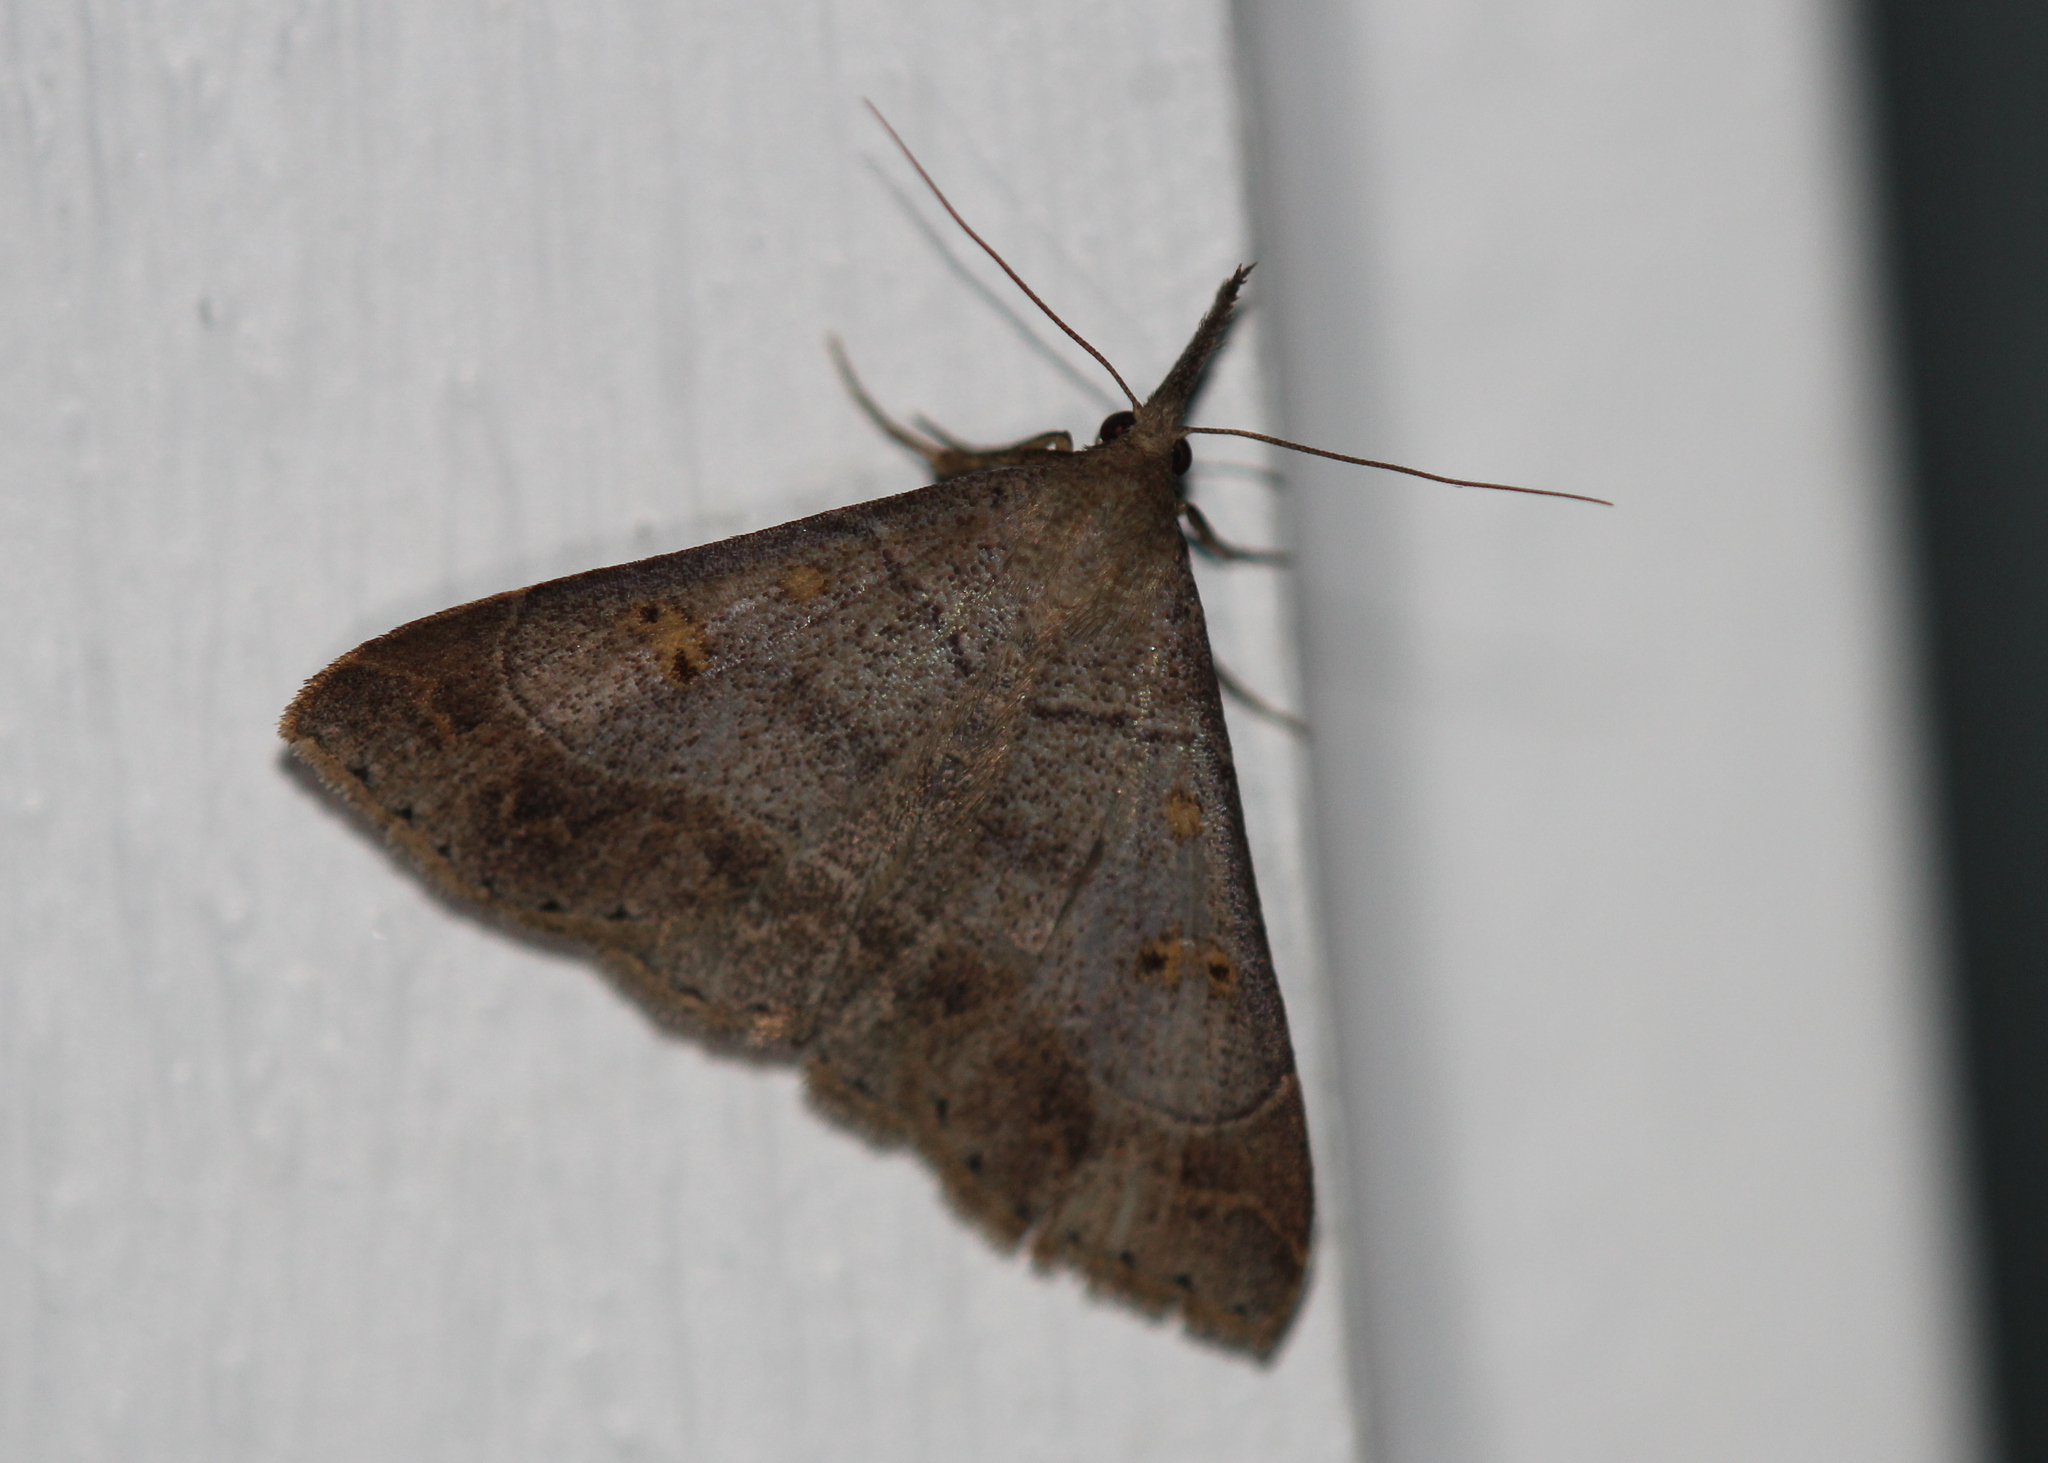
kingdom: Animalia
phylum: Arthropoda
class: Insecta
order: Lepidoptera
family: Erebidae
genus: Renia
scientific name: Renia flavipunctalis
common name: Yellow-spotted renia moth
